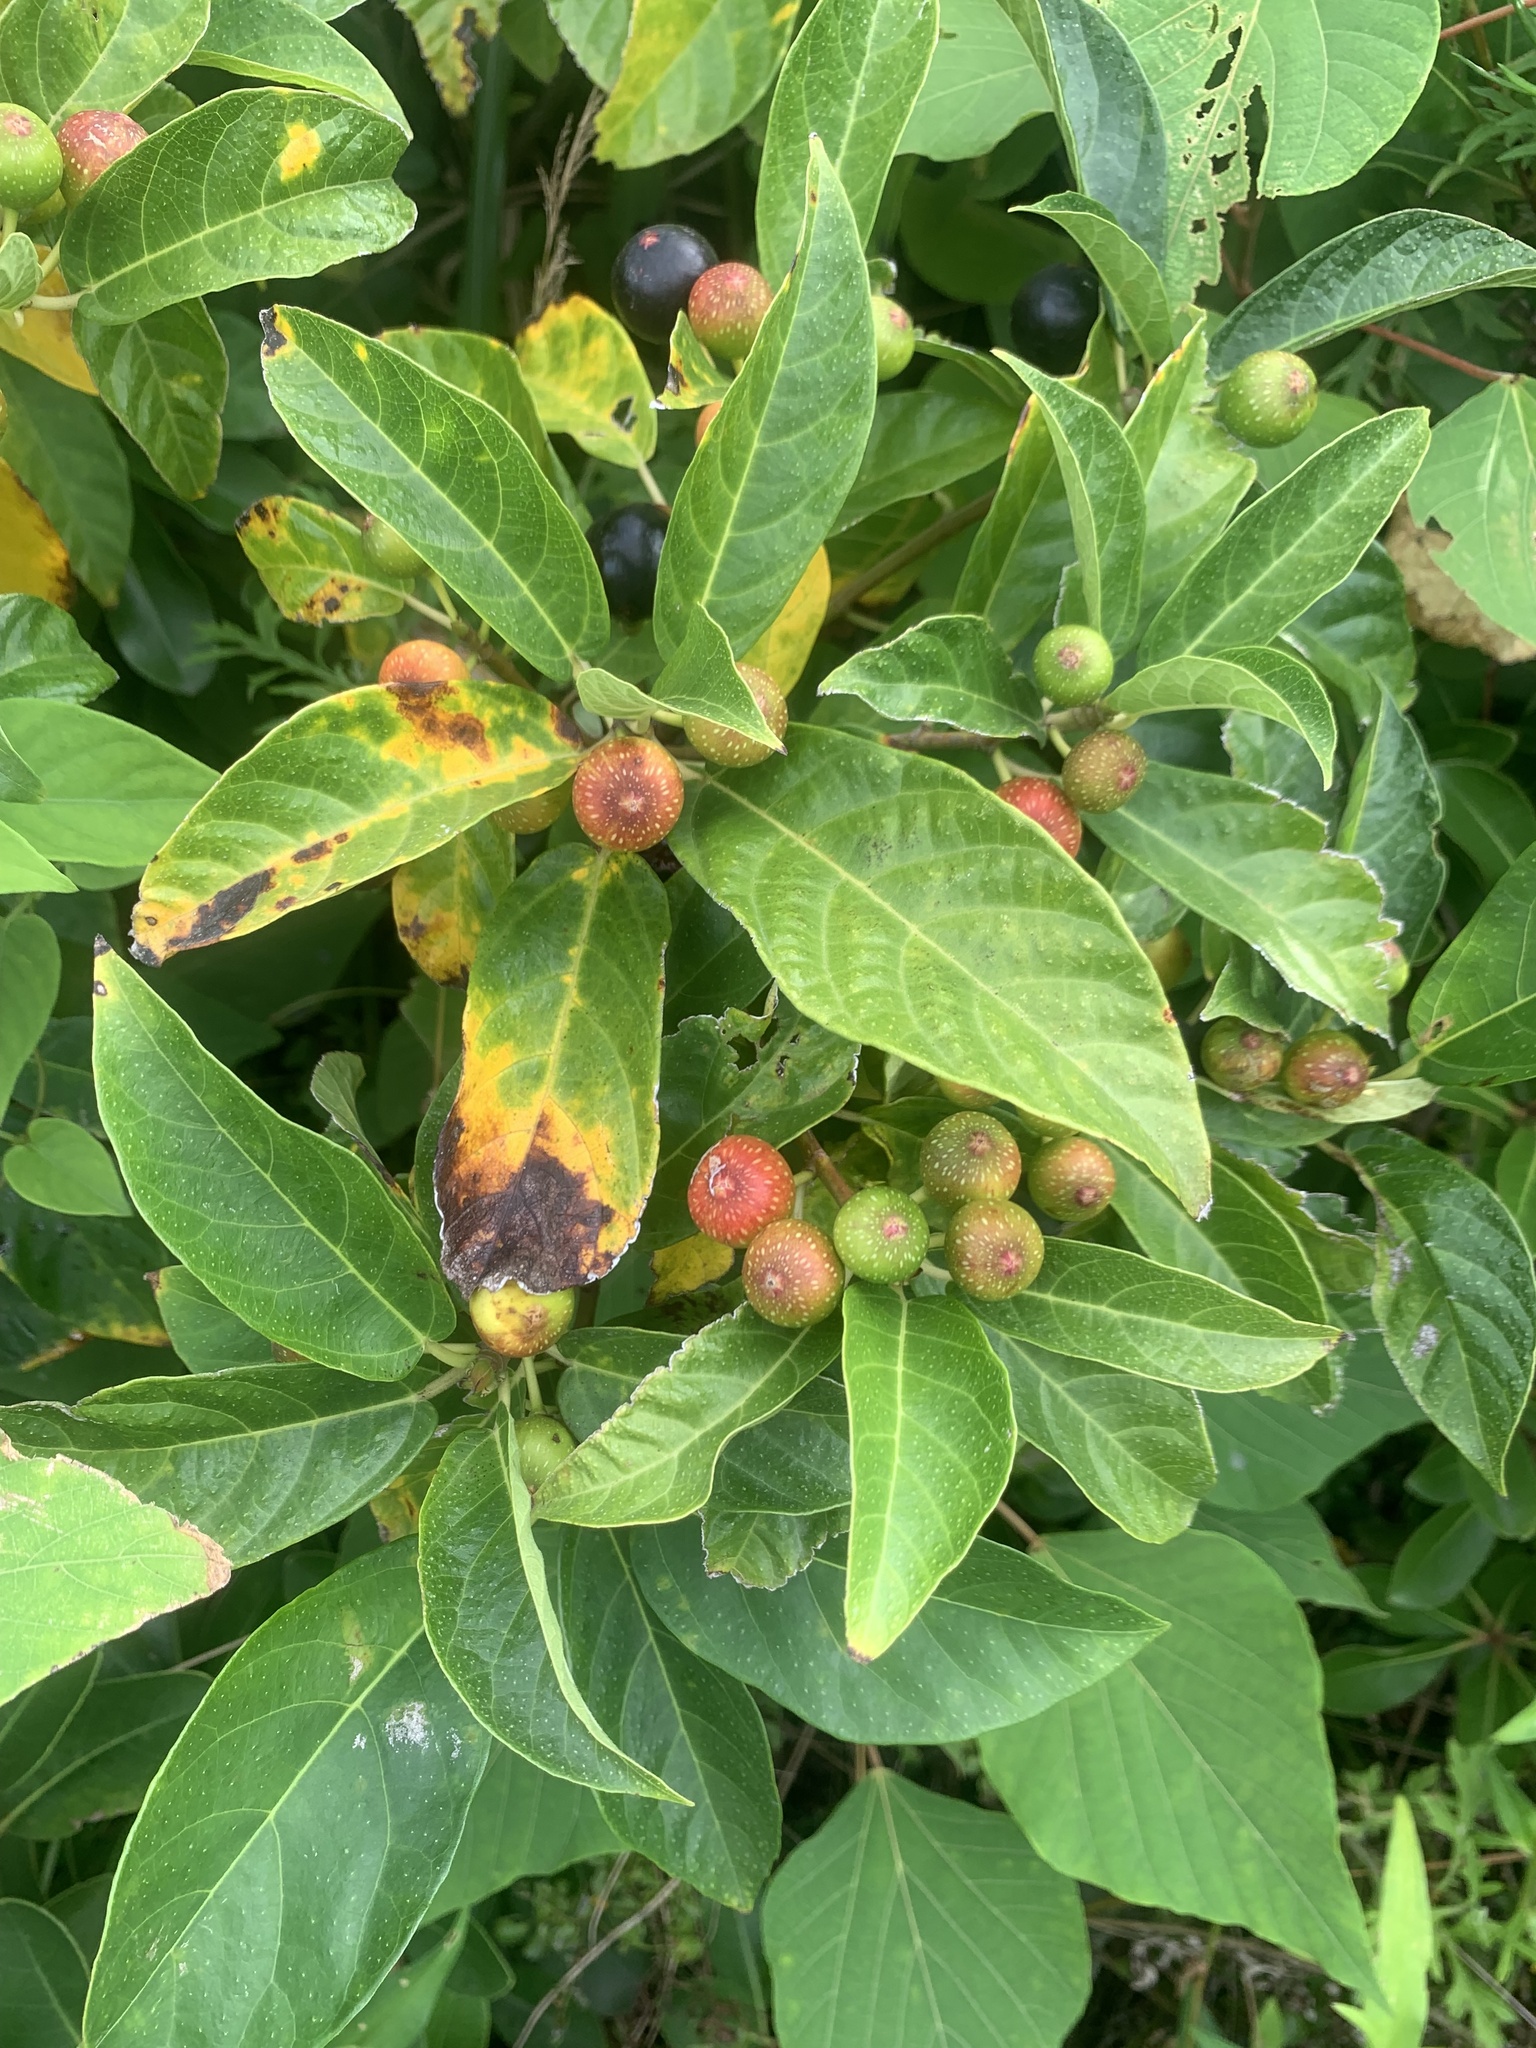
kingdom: Plantae
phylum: Tracheophyta
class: Magnoliopsida
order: Rosales
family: Moraceae
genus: Ficus
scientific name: Ficus erecta
